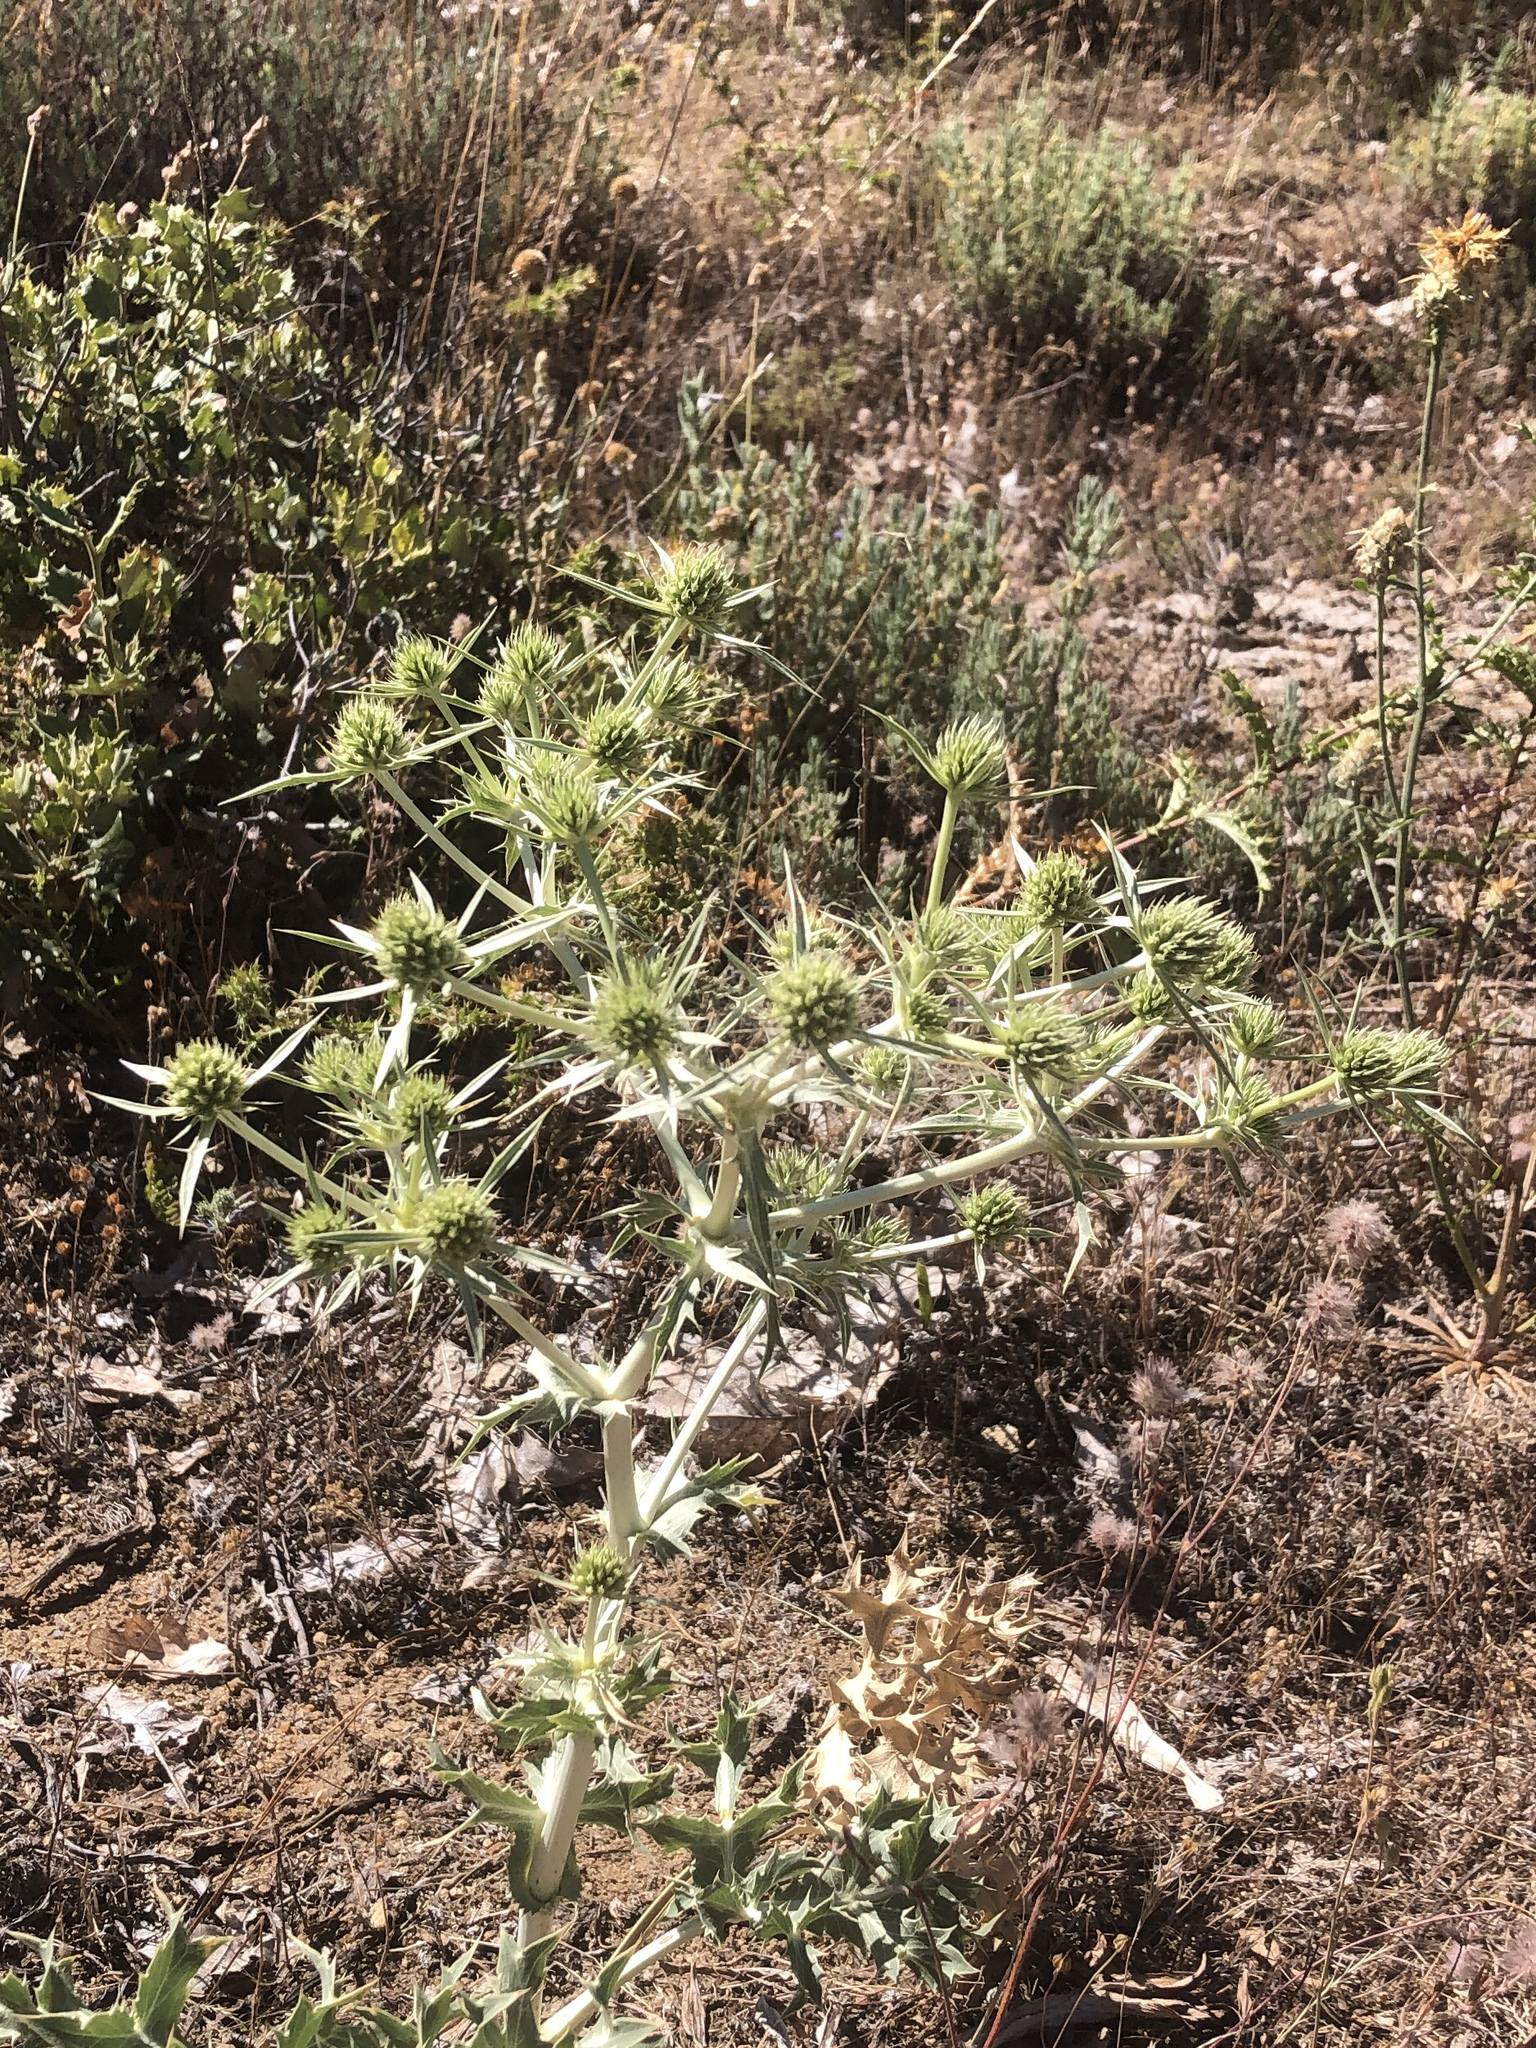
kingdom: Plantae
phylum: Tracheophyta
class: Magnoliopsida
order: Apiales
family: Apiaceae
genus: Eryngium
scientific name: Eryngium campestre
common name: Field eryngo
